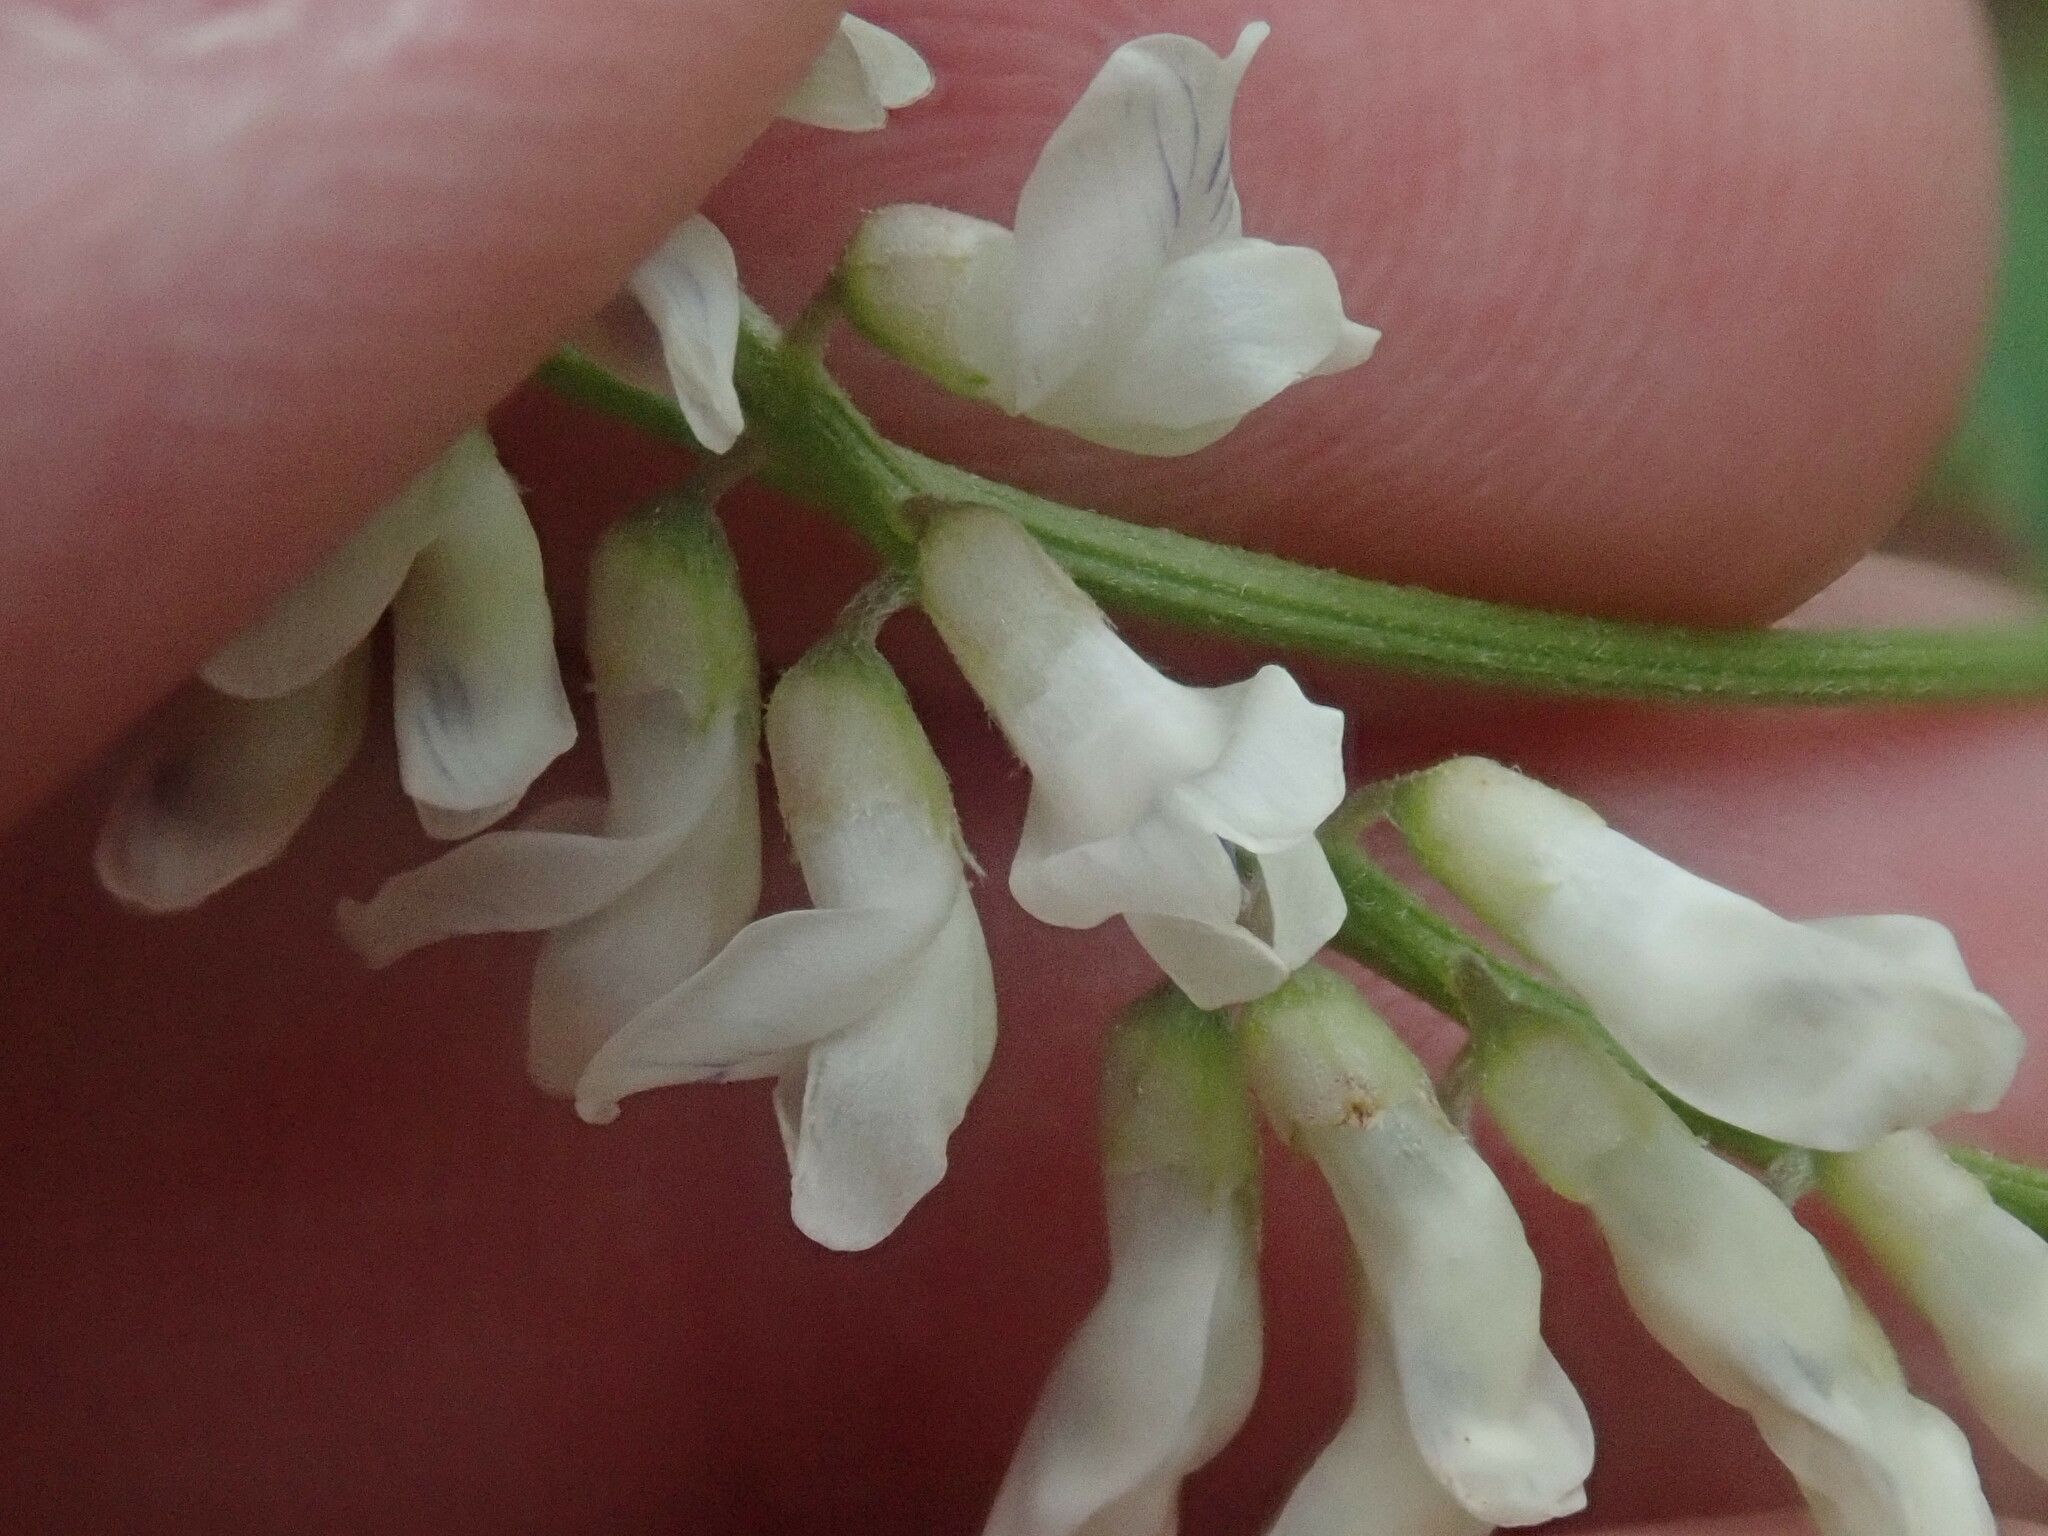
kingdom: Plantae
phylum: Tracheophyta
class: Magnoliopsida
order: Fabales
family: Fabaceae
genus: Vicia
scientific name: Vicia pulchella
